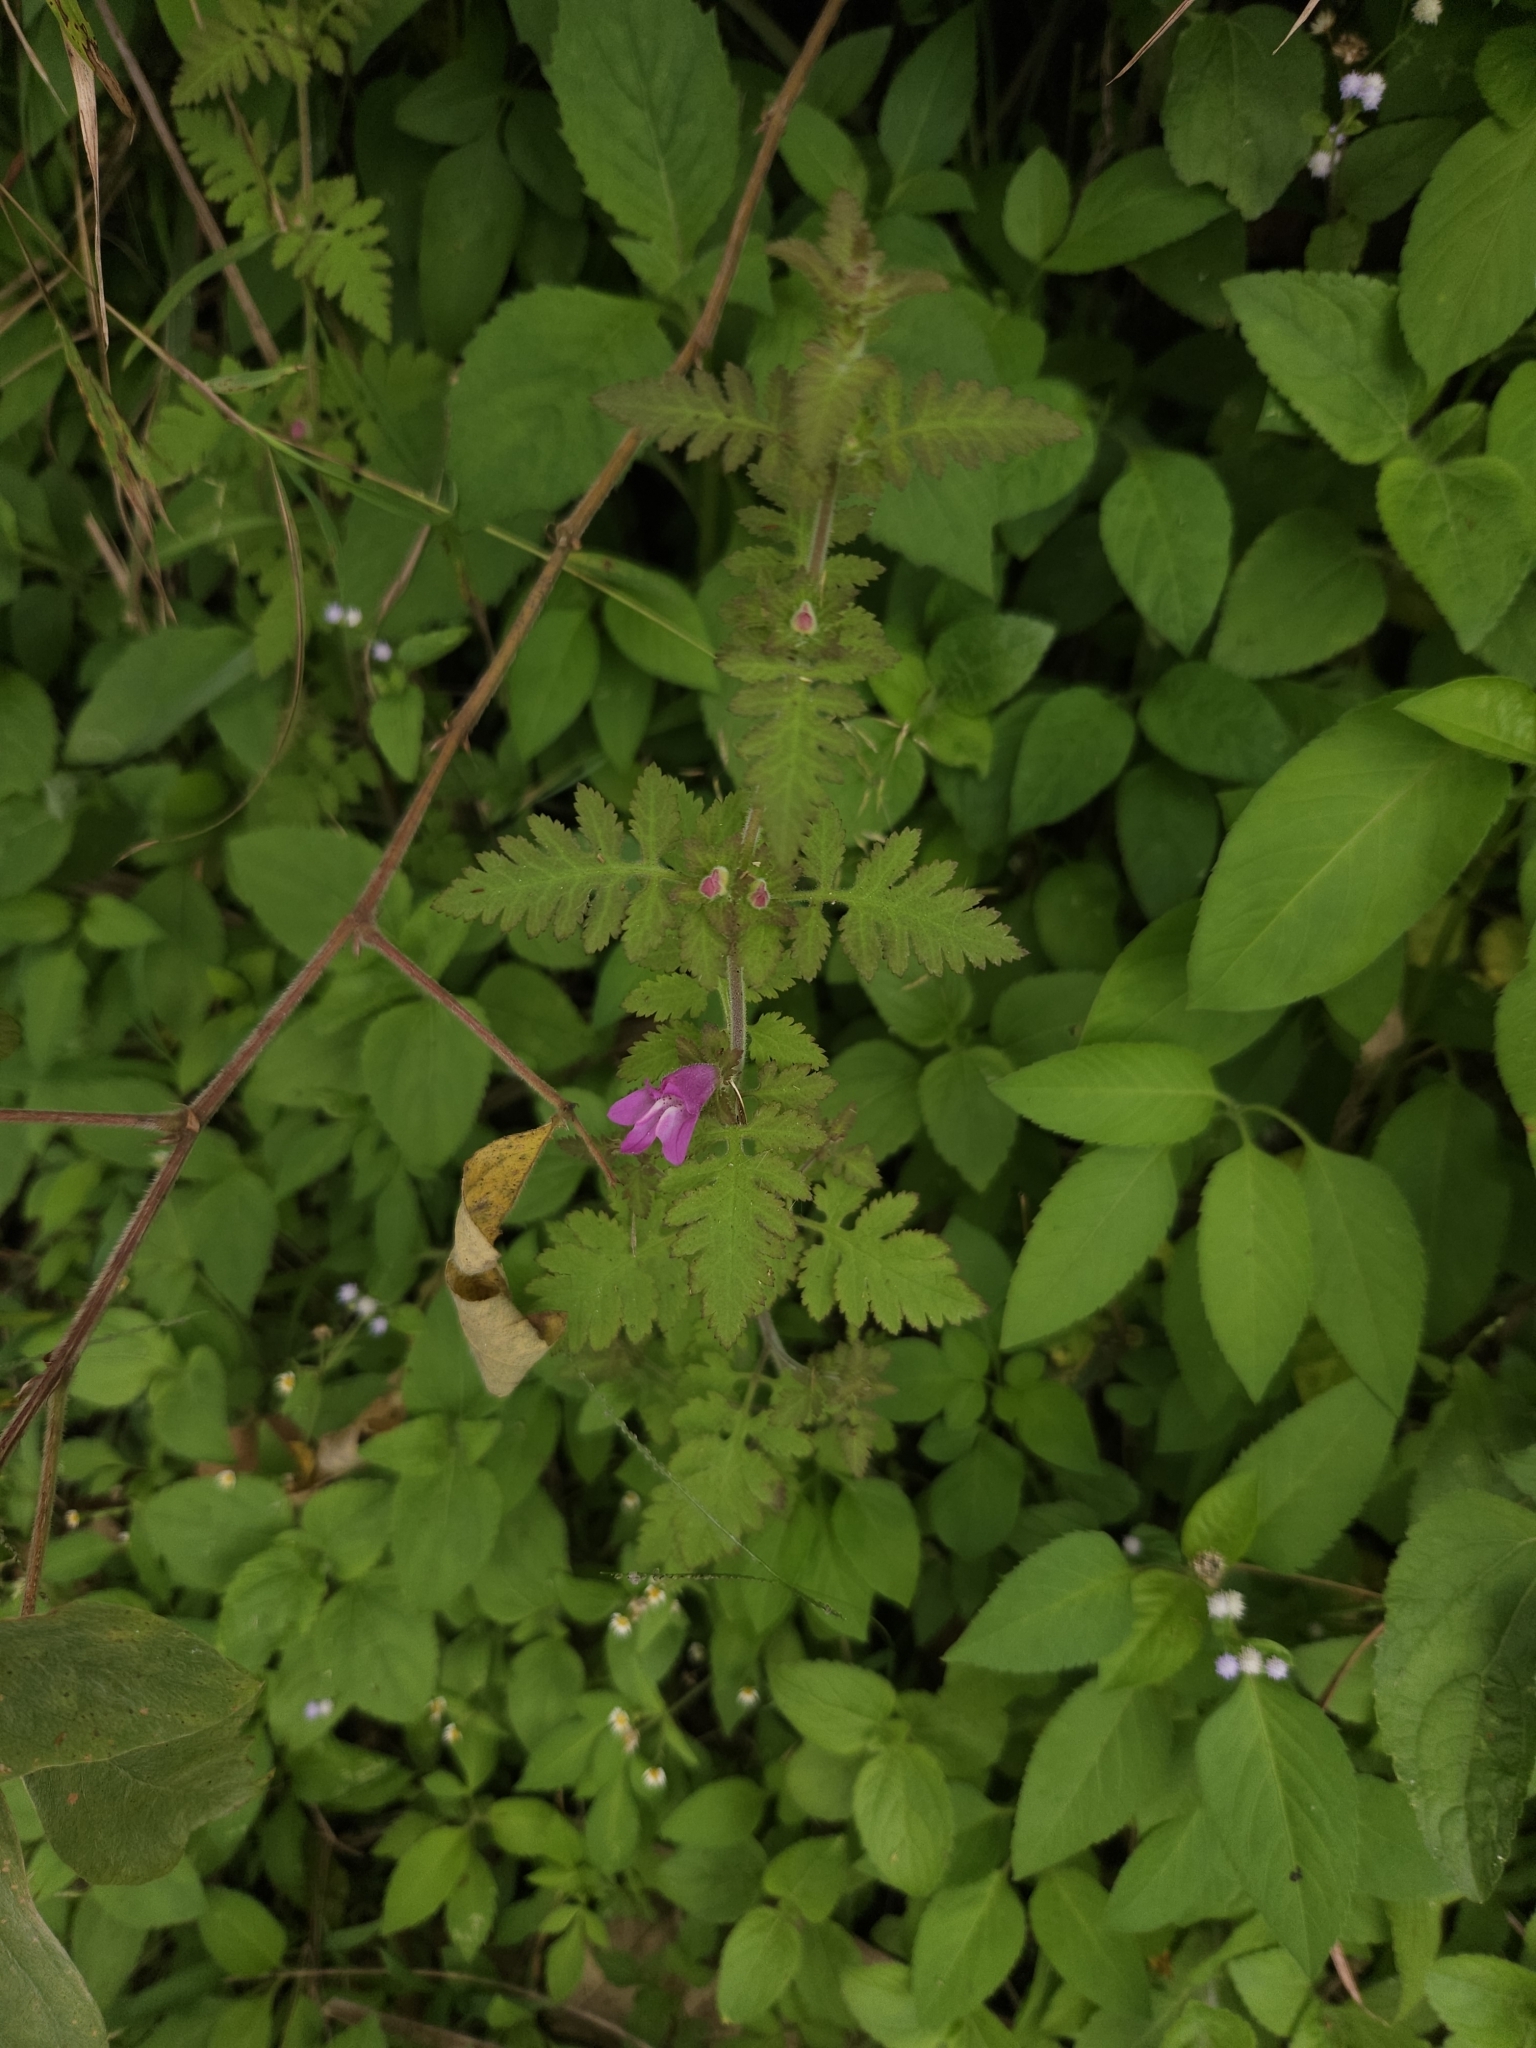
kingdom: Plantae
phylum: Tracheophyta
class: Magnoliopsida
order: Lamiales
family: Orobanchaceae
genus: Phtheirospermum
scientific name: Phtheirospermum japonicum
